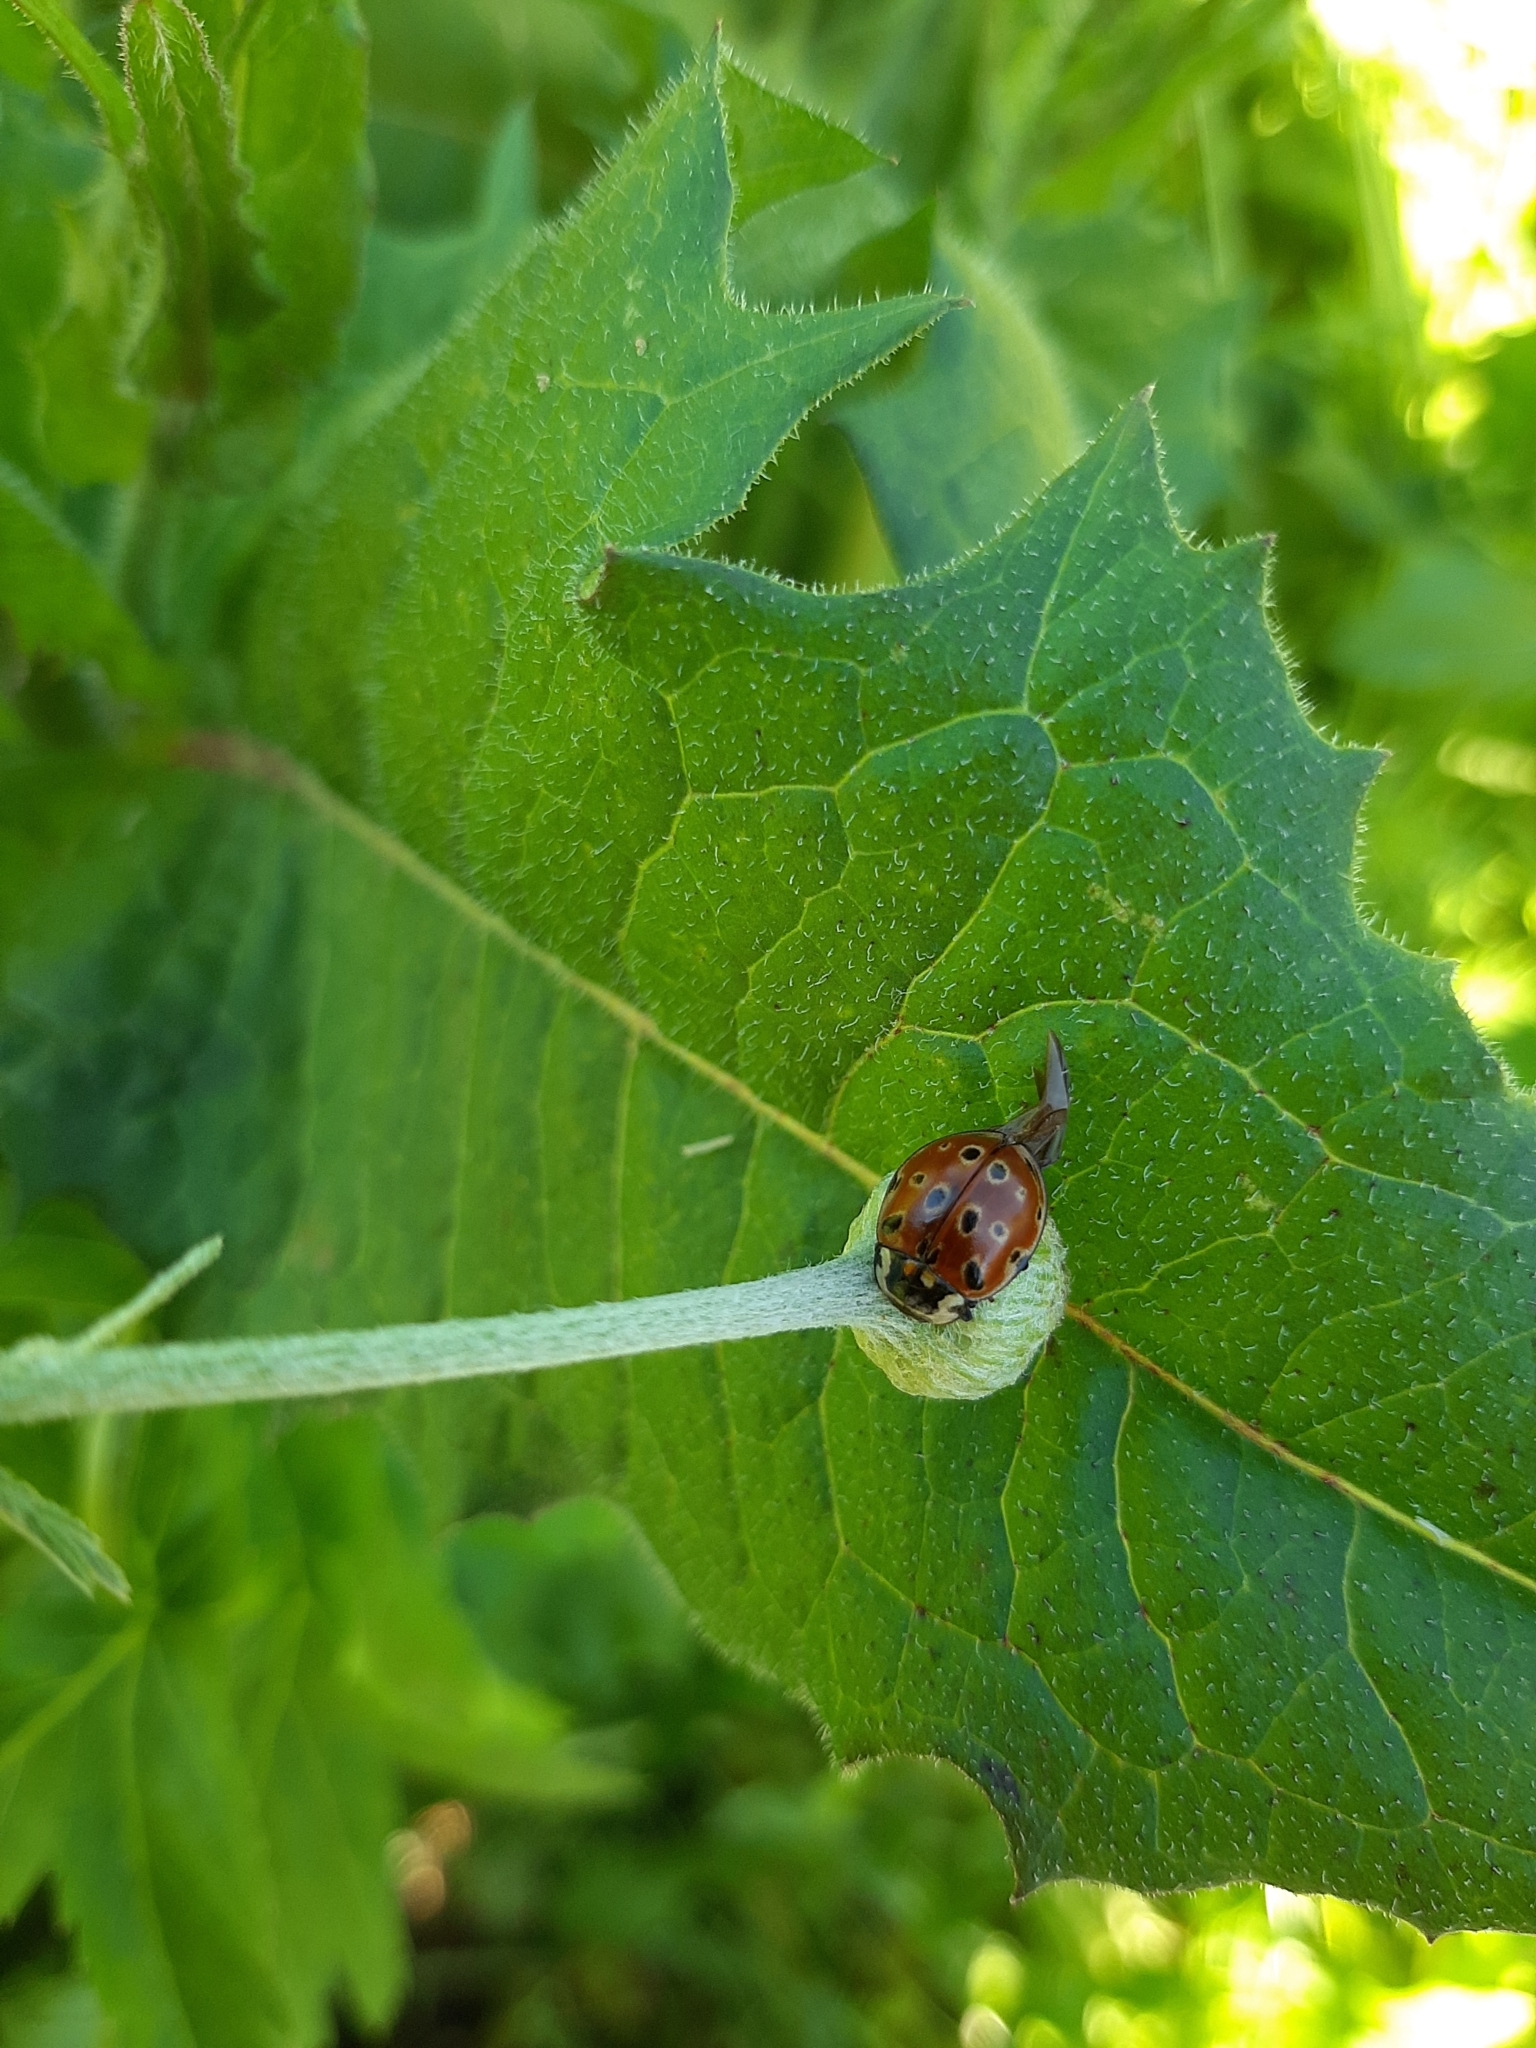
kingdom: Animalia
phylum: Arthropoda
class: Insecta
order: Coleoptera
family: Coccinellidae
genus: Anatis
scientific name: Anatis ocellata
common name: Eyed ladybird
